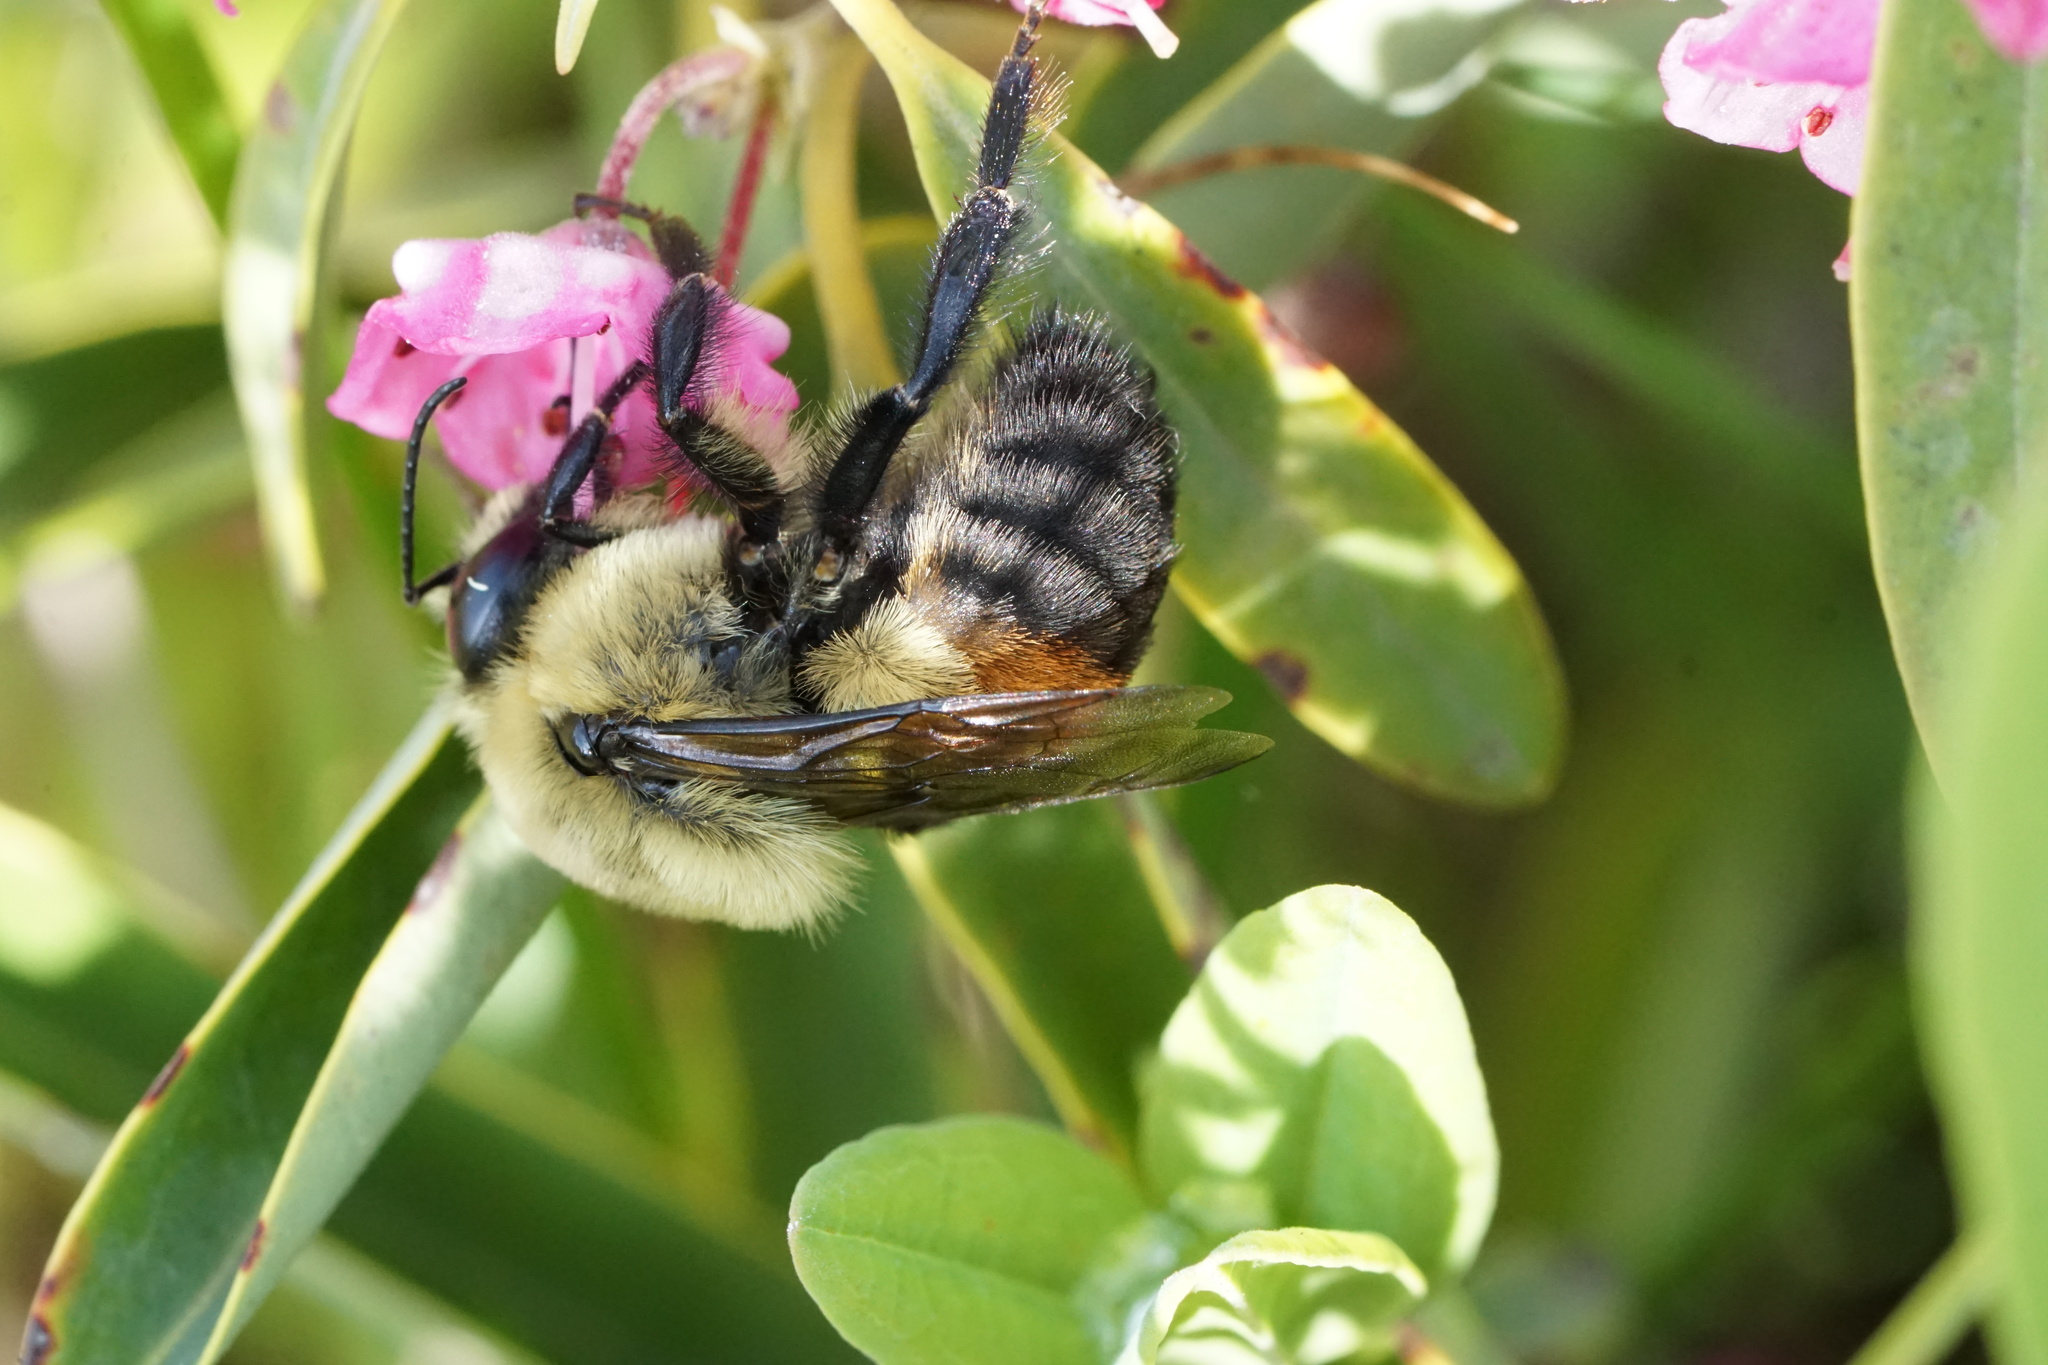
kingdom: Animalia
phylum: Arthropoda
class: Insecta
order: Hymenoptera
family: Apidae
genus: Bombus
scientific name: Bombus griseocollis
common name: Brown-belted bumble bee
